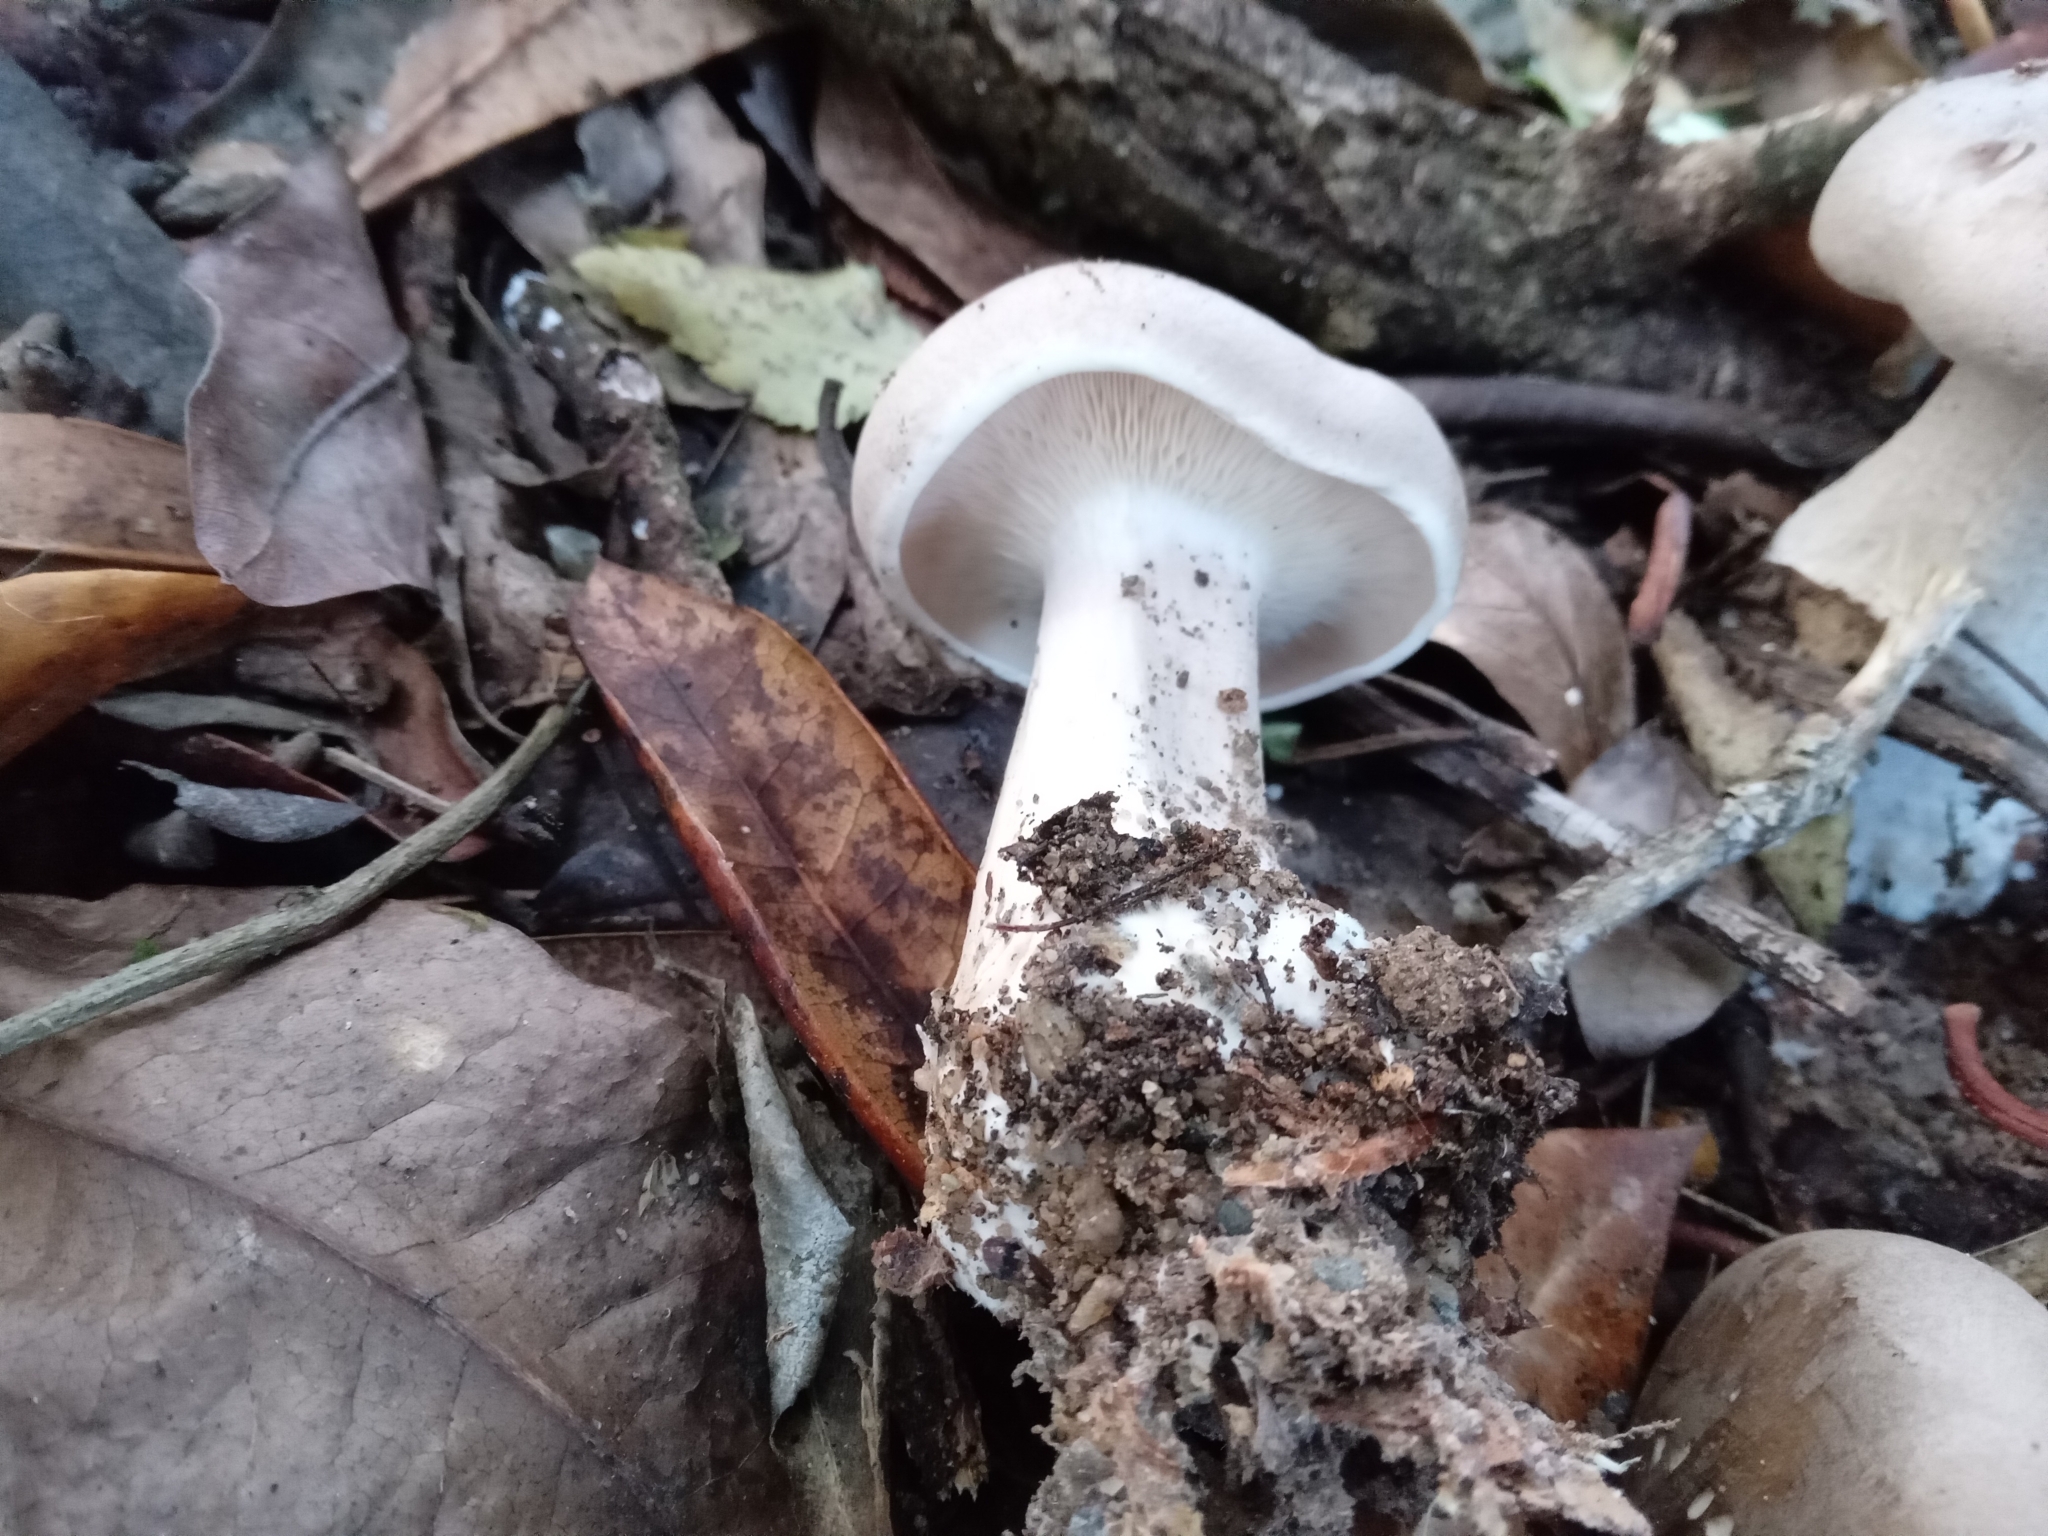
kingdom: Fungi
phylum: Basidiomycota
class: Agaricomycetes
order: Agaricales
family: Tricholomataceae
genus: Clitocybe
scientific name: Clitocybe nebularis
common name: Clouded agaric
